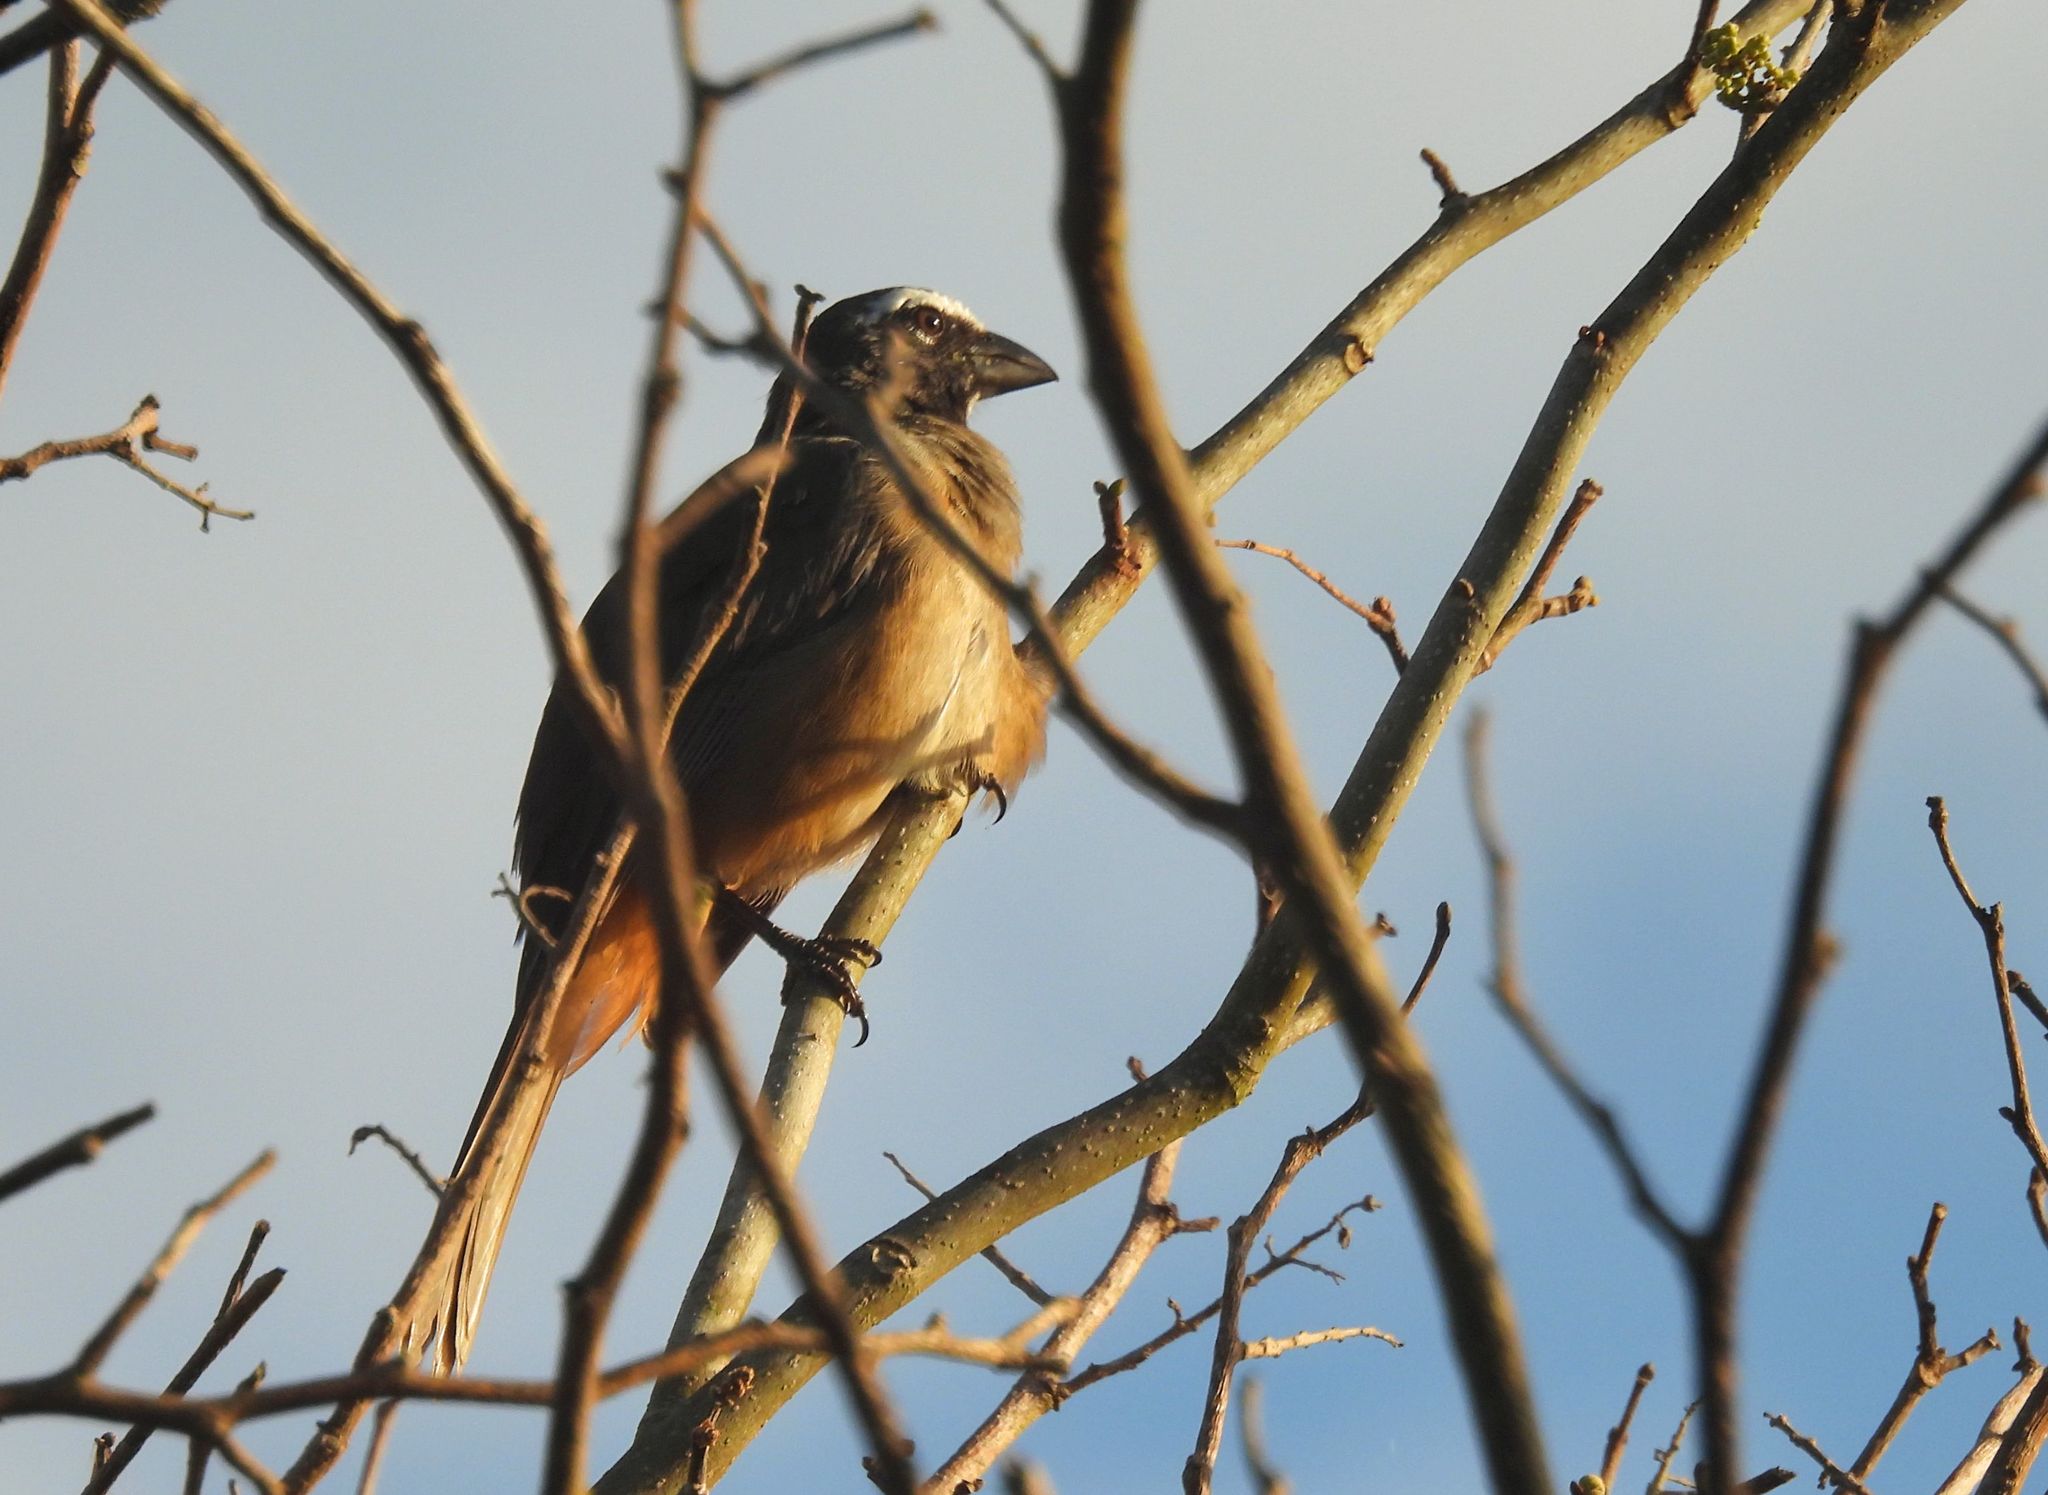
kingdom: Animalia
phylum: Chordata
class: Aves
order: Passeriformes
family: Thraupidae
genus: Saltator
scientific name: Saltator grandis
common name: Cinnamon-bellied saltator
